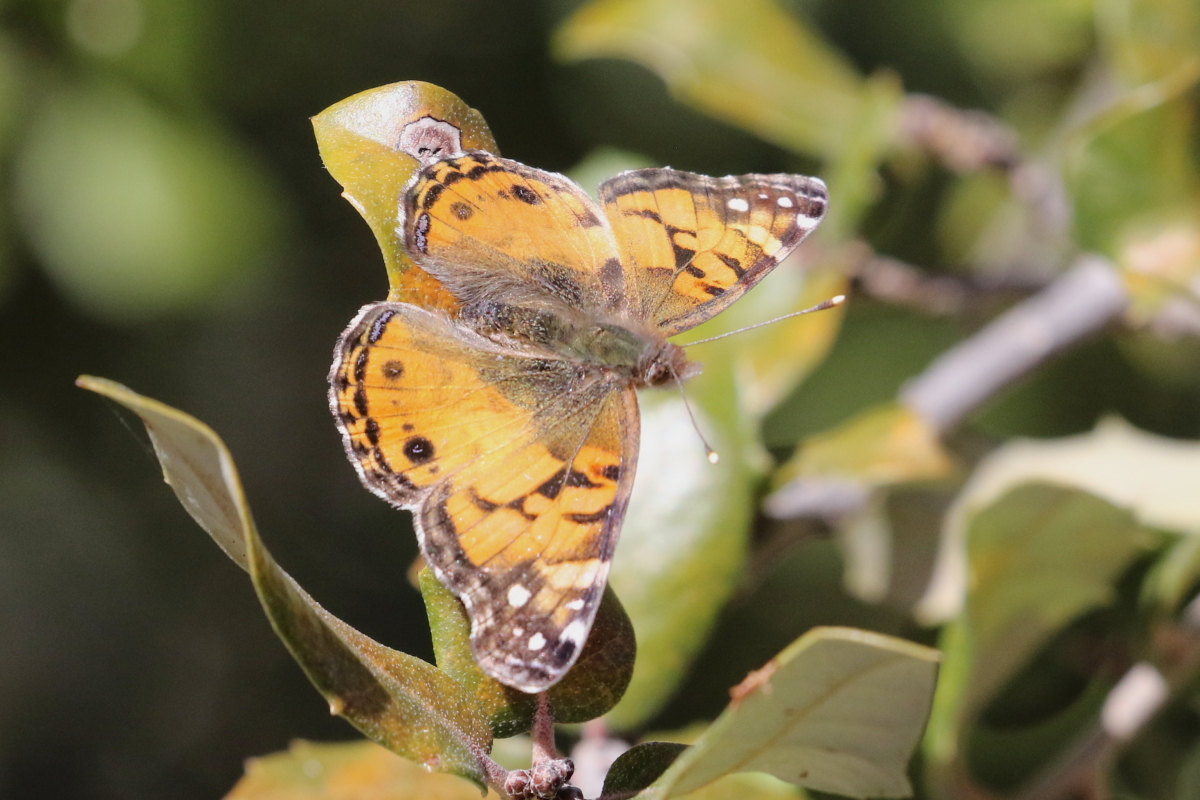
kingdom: Animalia
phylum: Arthropoda
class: Insecta
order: Lepidoptera
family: Nymphalidae
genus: Vanessa
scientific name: Vanessa virginiensis
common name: American lady
